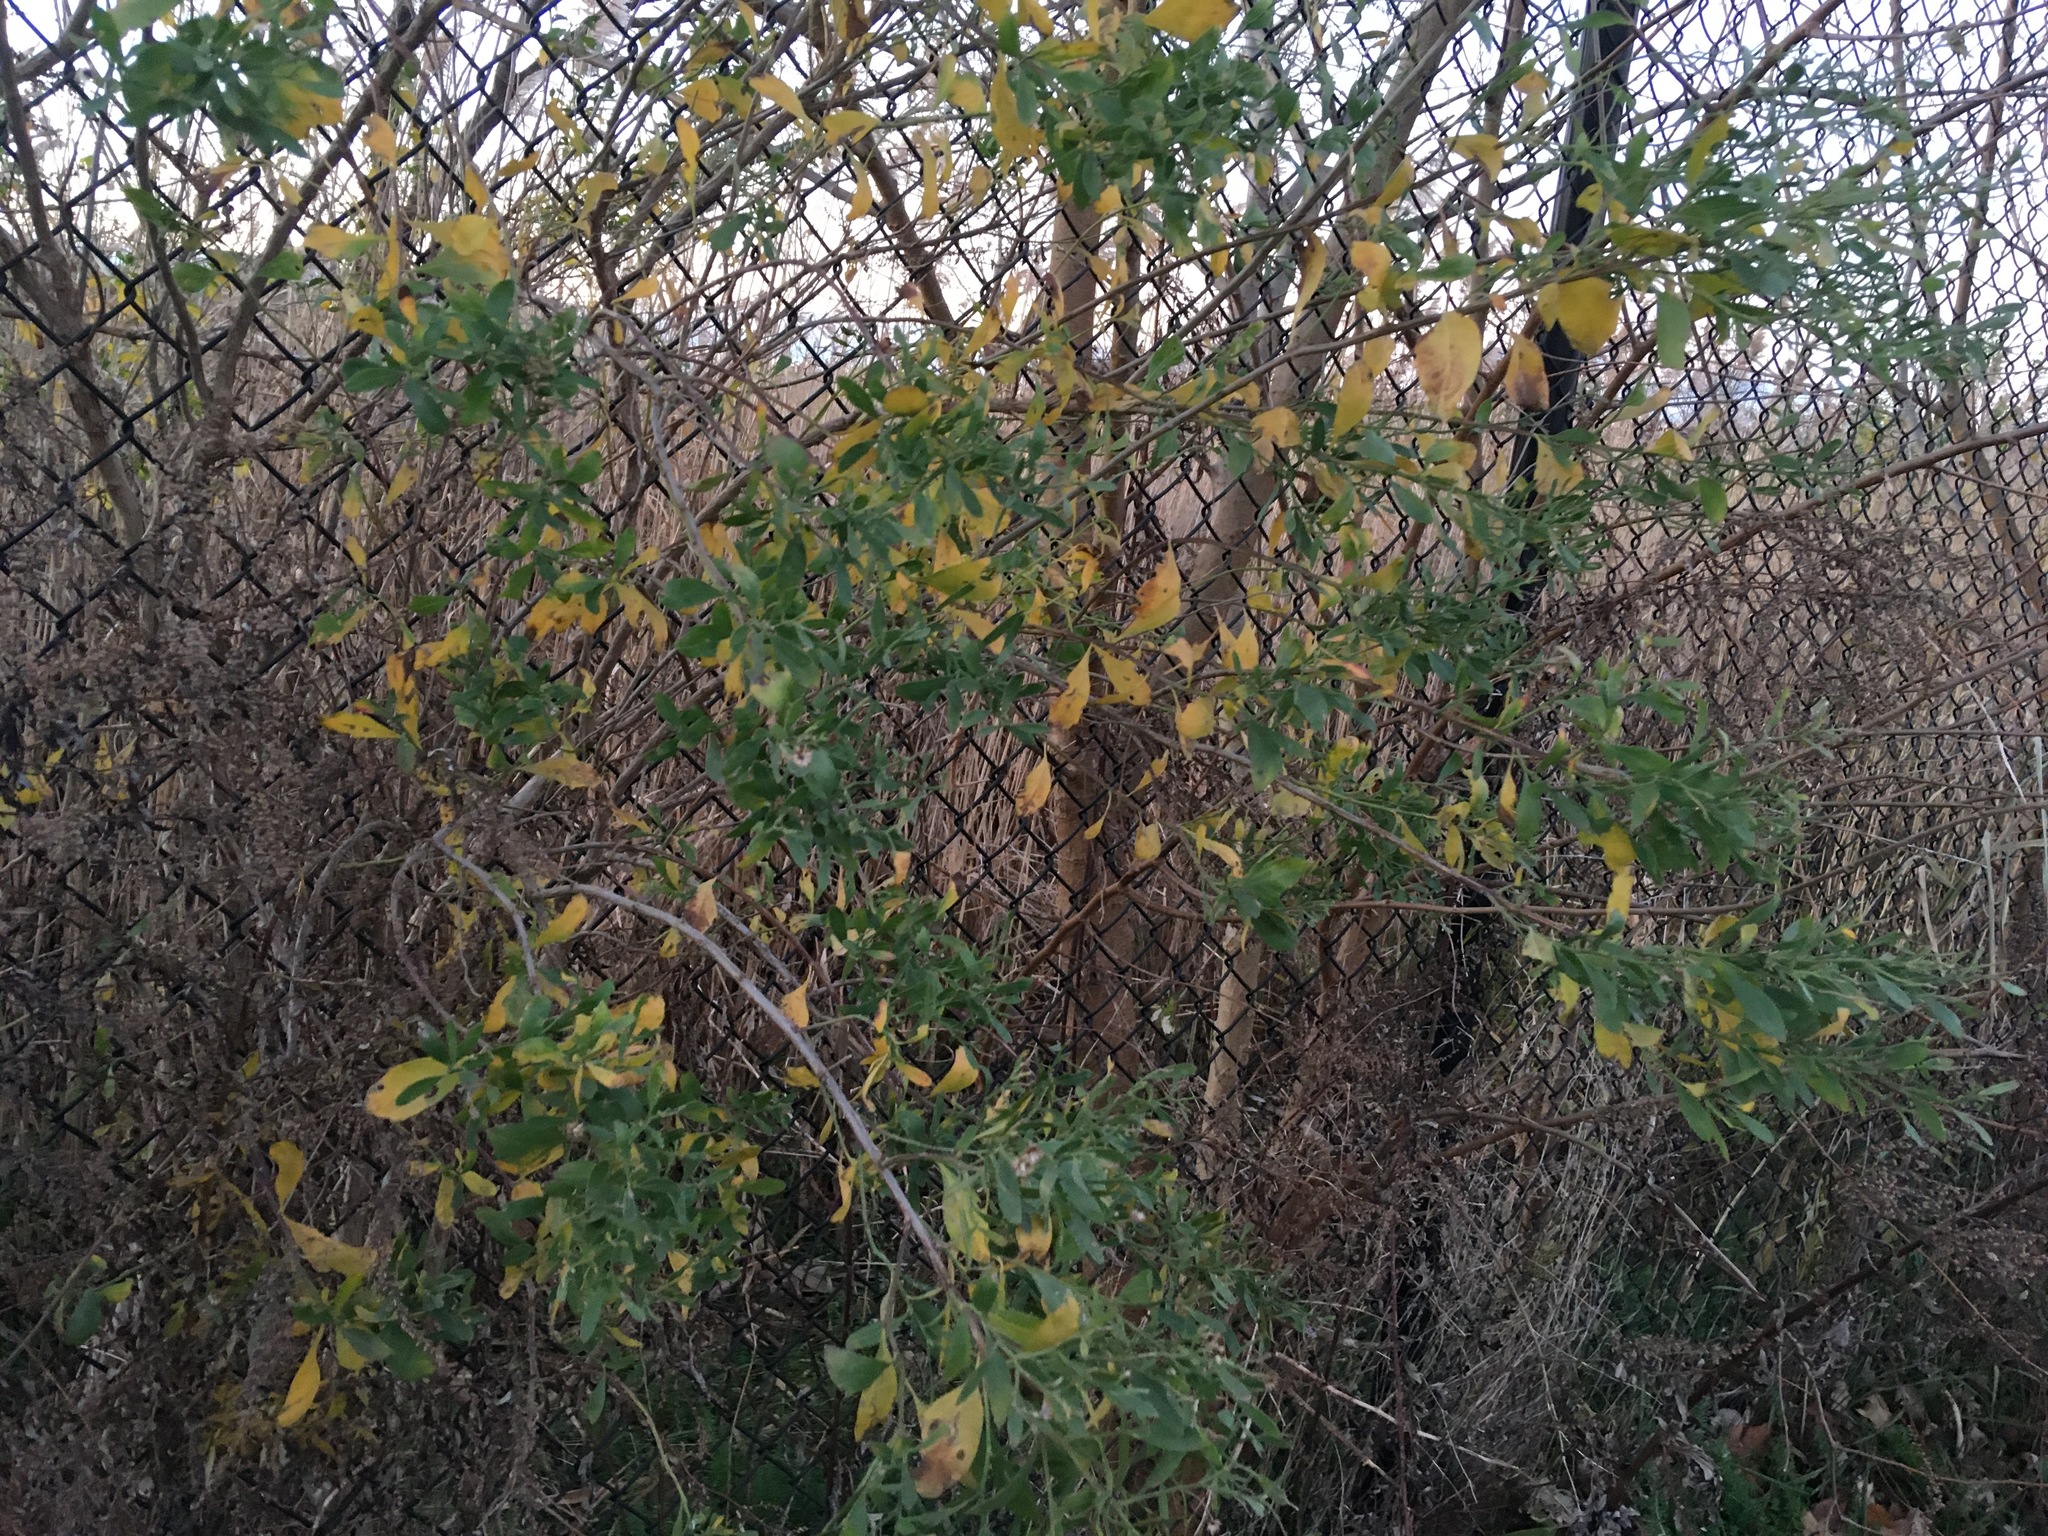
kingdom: Plantae
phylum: Tracheophyta
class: Magnoliopsida
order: Asterales
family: Asteraceae
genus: Baccharis
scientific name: Baccharis halimifolia
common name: Eastern baccharis
